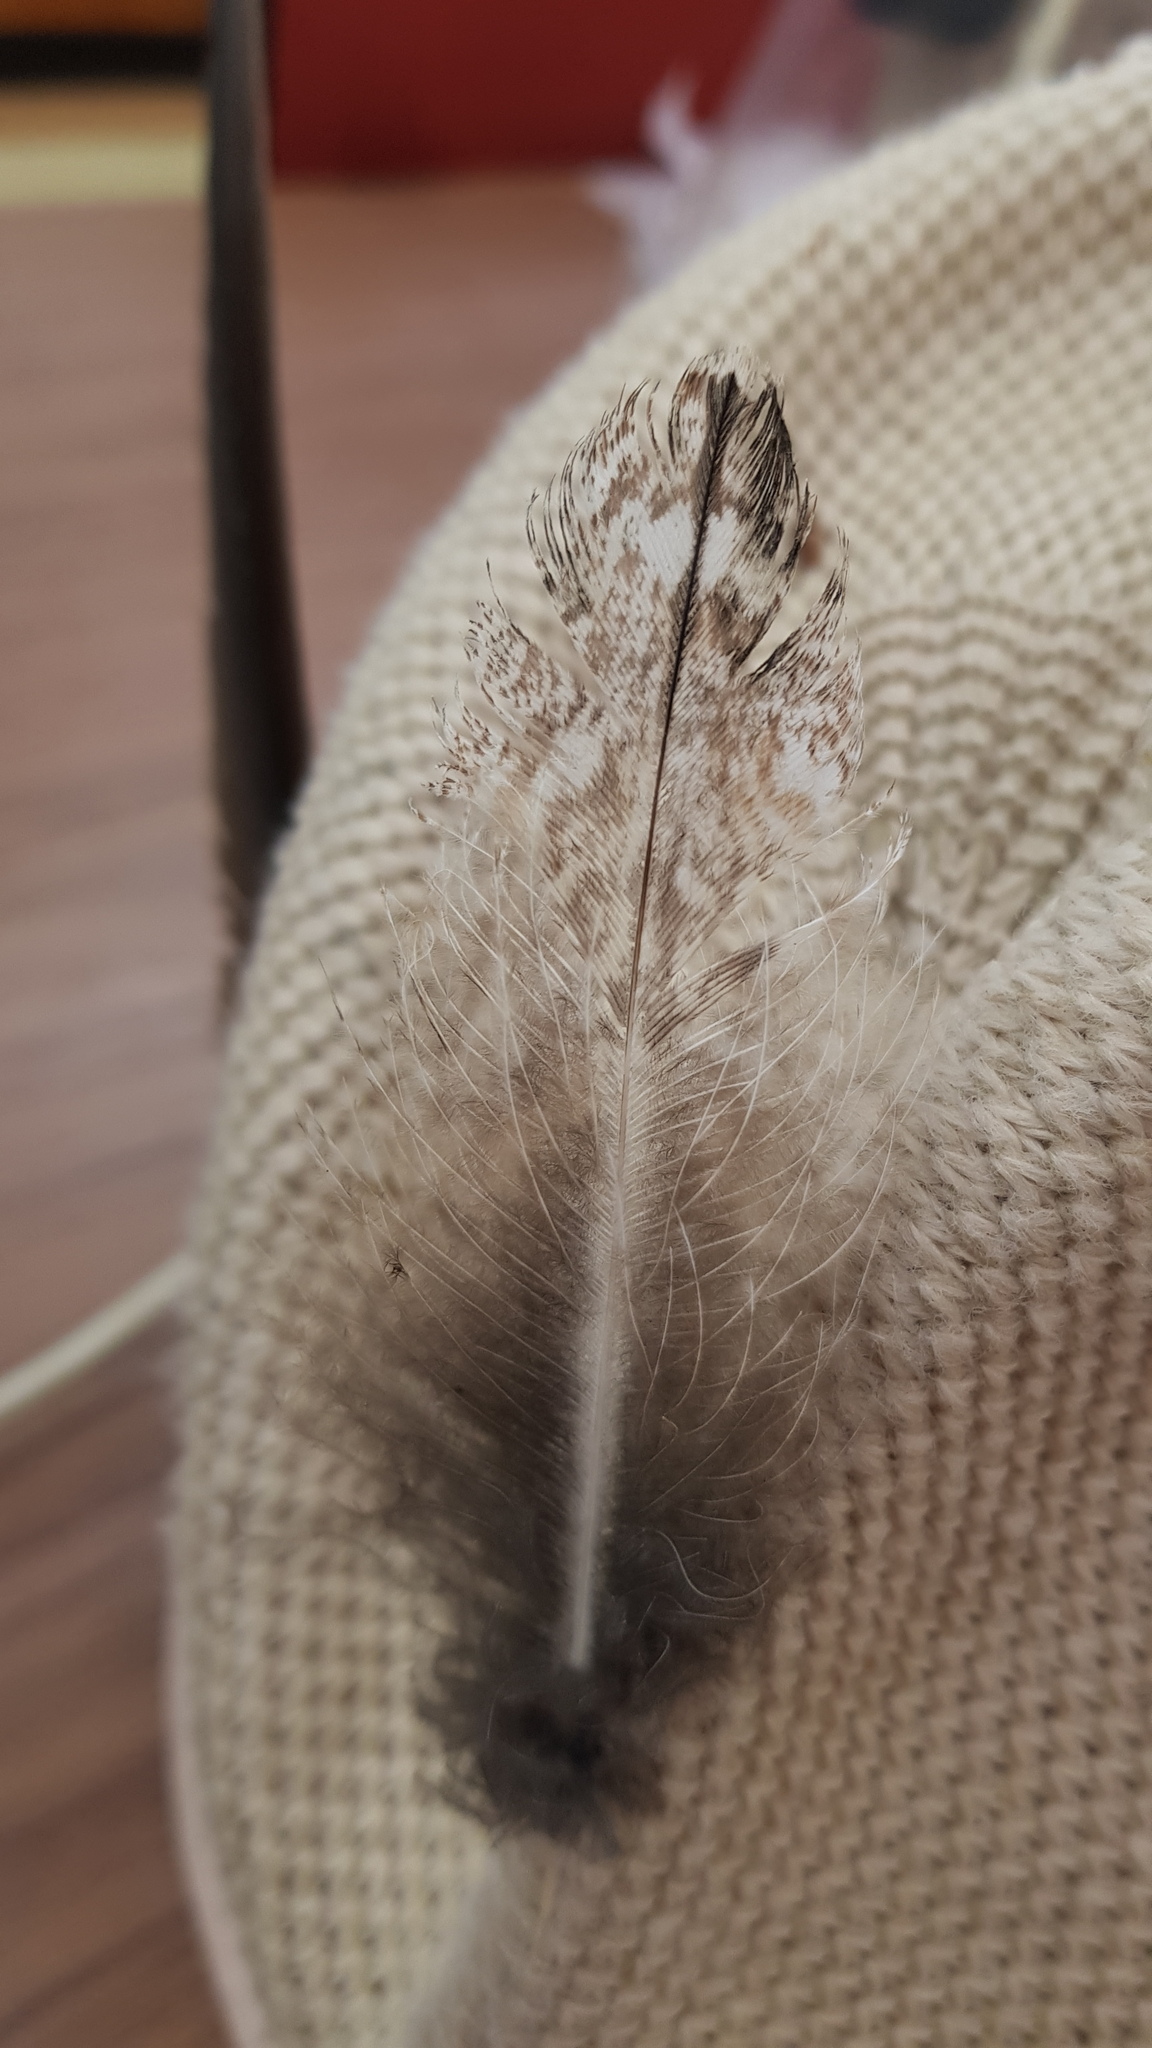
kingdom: Animalia
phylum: Chordata
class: Aves
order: Caprimulgiformes
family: Podargidae
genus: Podargus
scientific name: Podargus strigoides
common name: Tawny frogmouth
